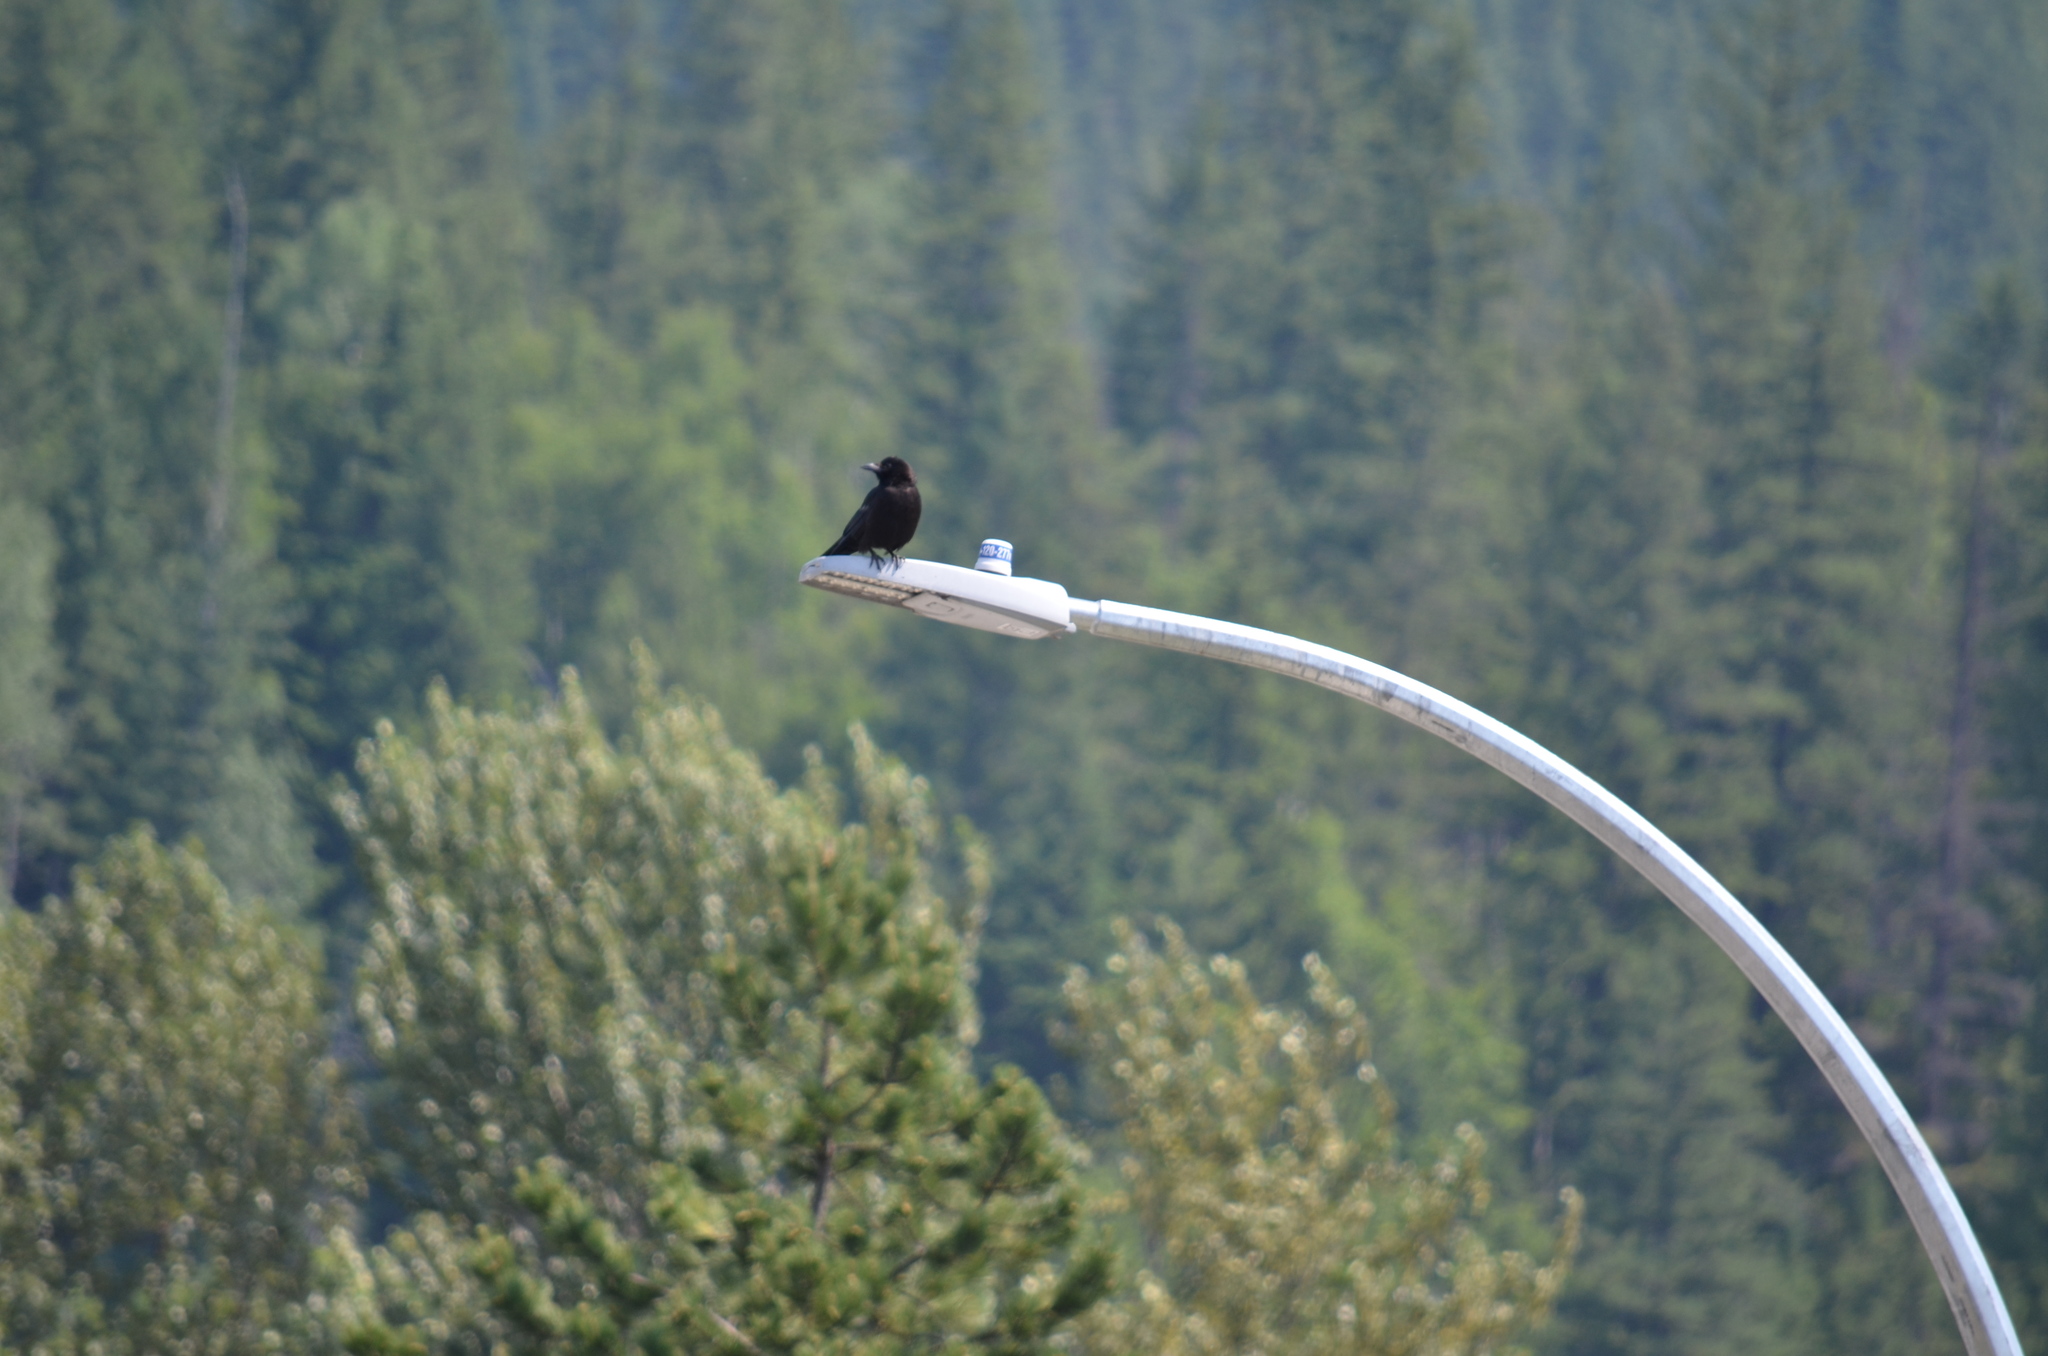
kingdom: Animalia
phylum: Chordata
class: Aves
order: Passeriformes
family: Corvidae
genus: Corvus
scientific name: Corvus brachyrhynchos
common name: American crow
